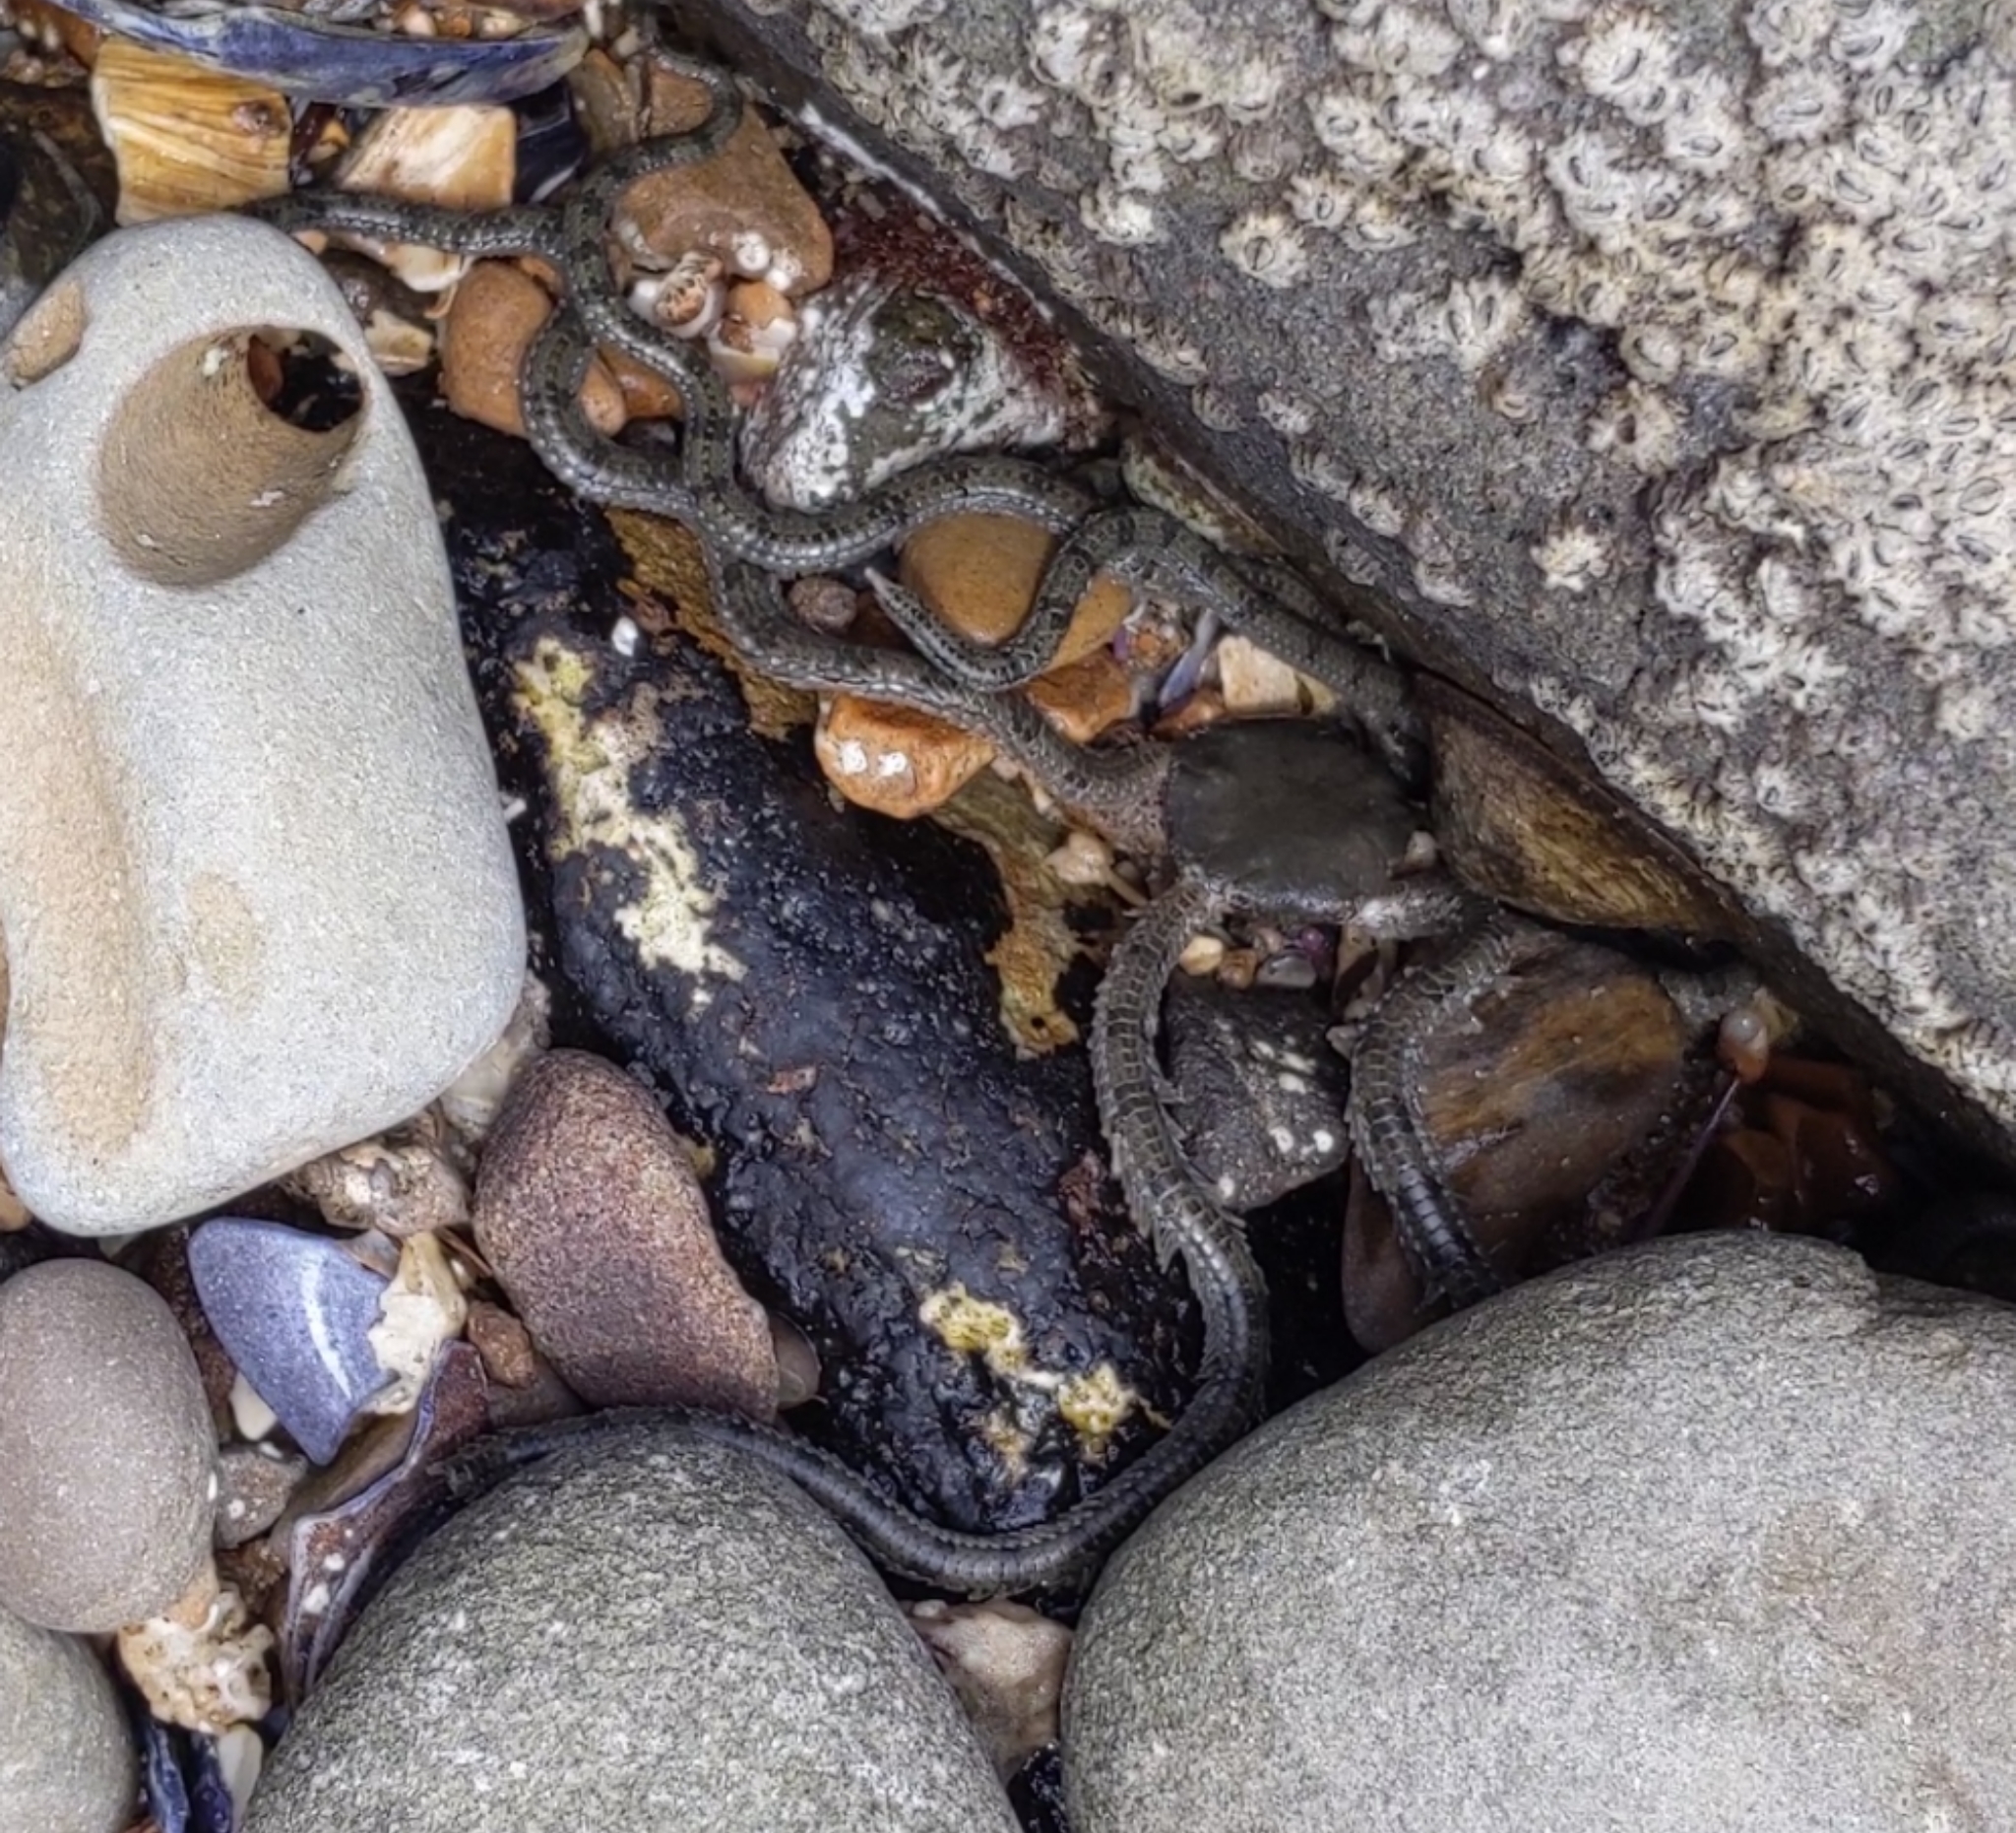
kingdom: Animalia
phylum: Echinodermata
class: Ophiuroidea
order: Amphilepidida
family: Ophionereididae
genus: Ophionereis
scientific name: Ophionereis annulata
